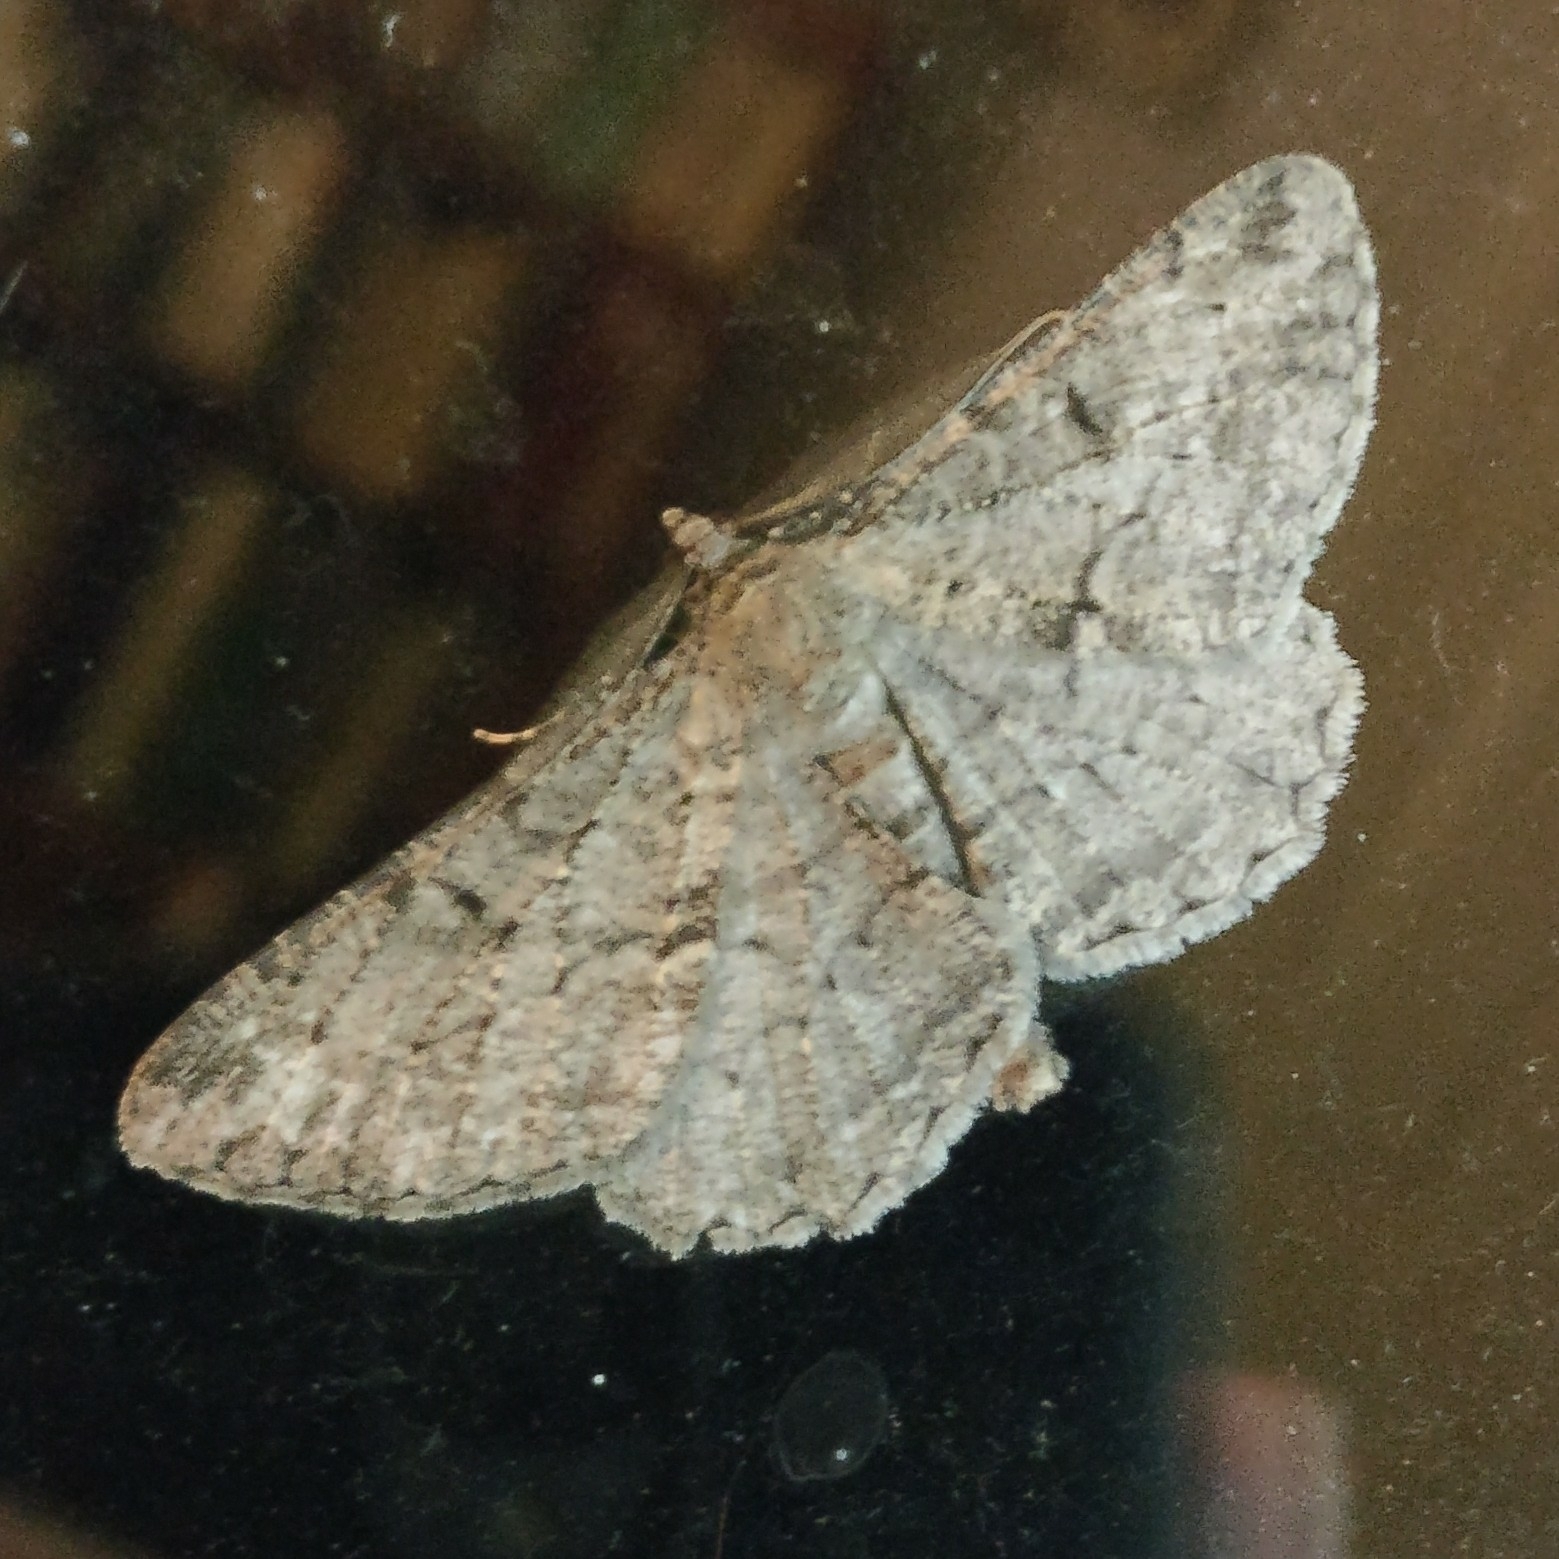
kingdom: Animalia
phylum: Arthropoda
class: Insecta
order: Lepidoptera
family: Geometridae
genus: Peribatodes
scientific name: Peribatodes rhomboidaria
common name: Willow beauty
